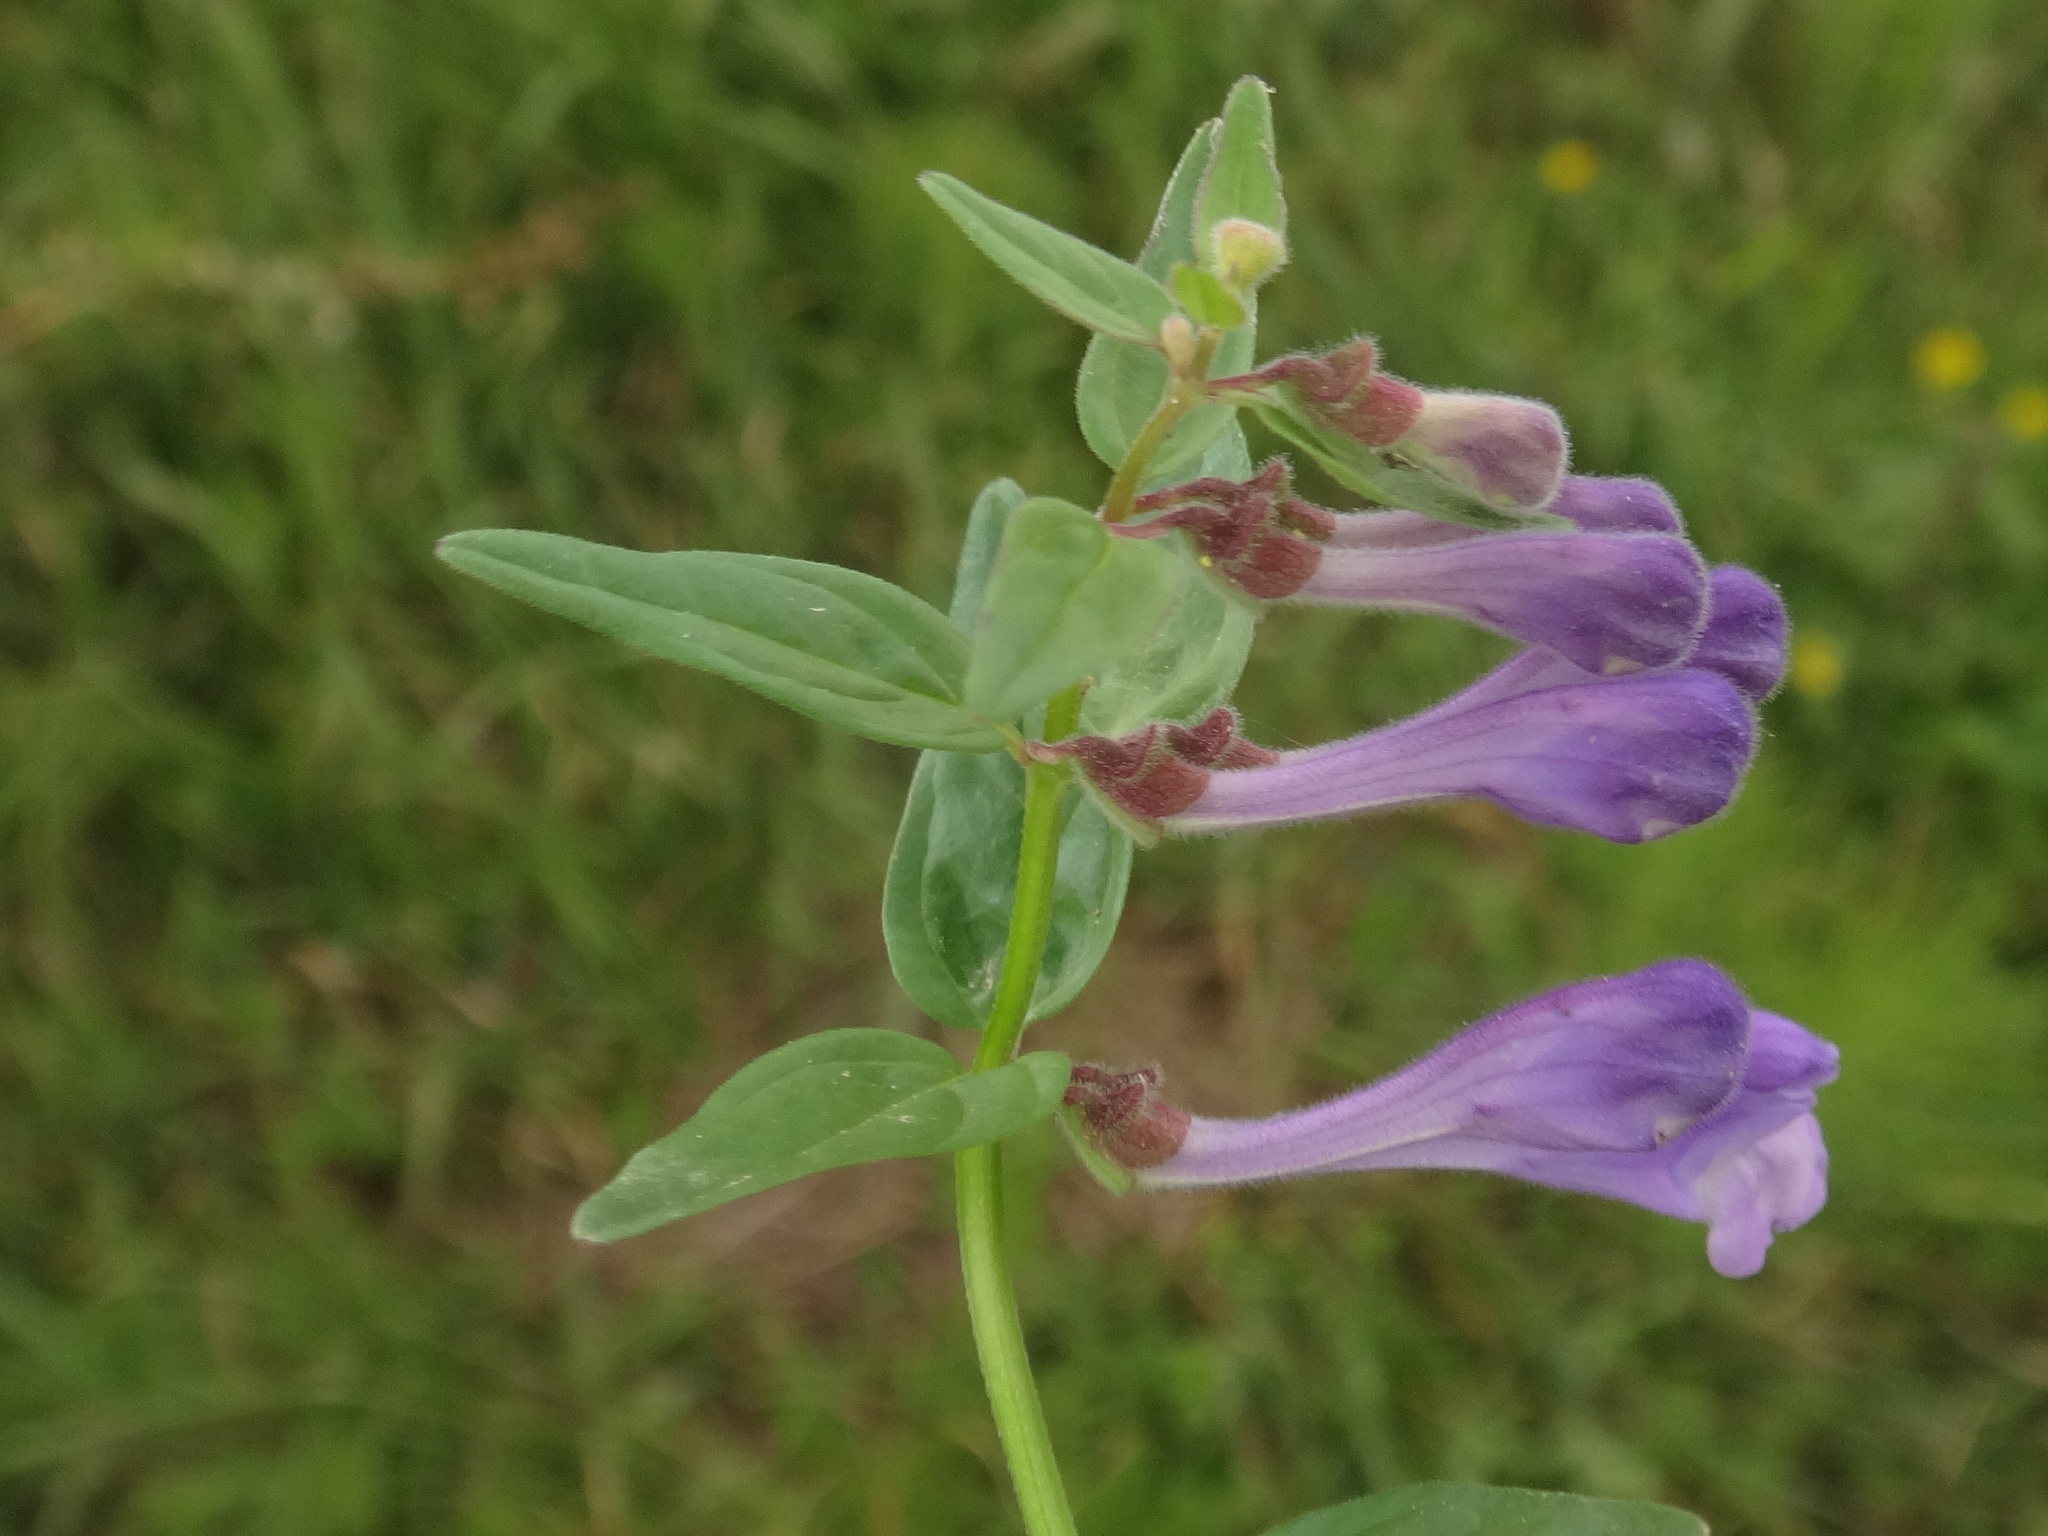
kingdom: Plantae
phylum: Tracheophyta
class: Magnoliopsida
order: Lamiales
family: Lamiaceae
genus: Scutellaria
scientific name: Scutellaria hastifolia
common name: Norfolk skullcap
